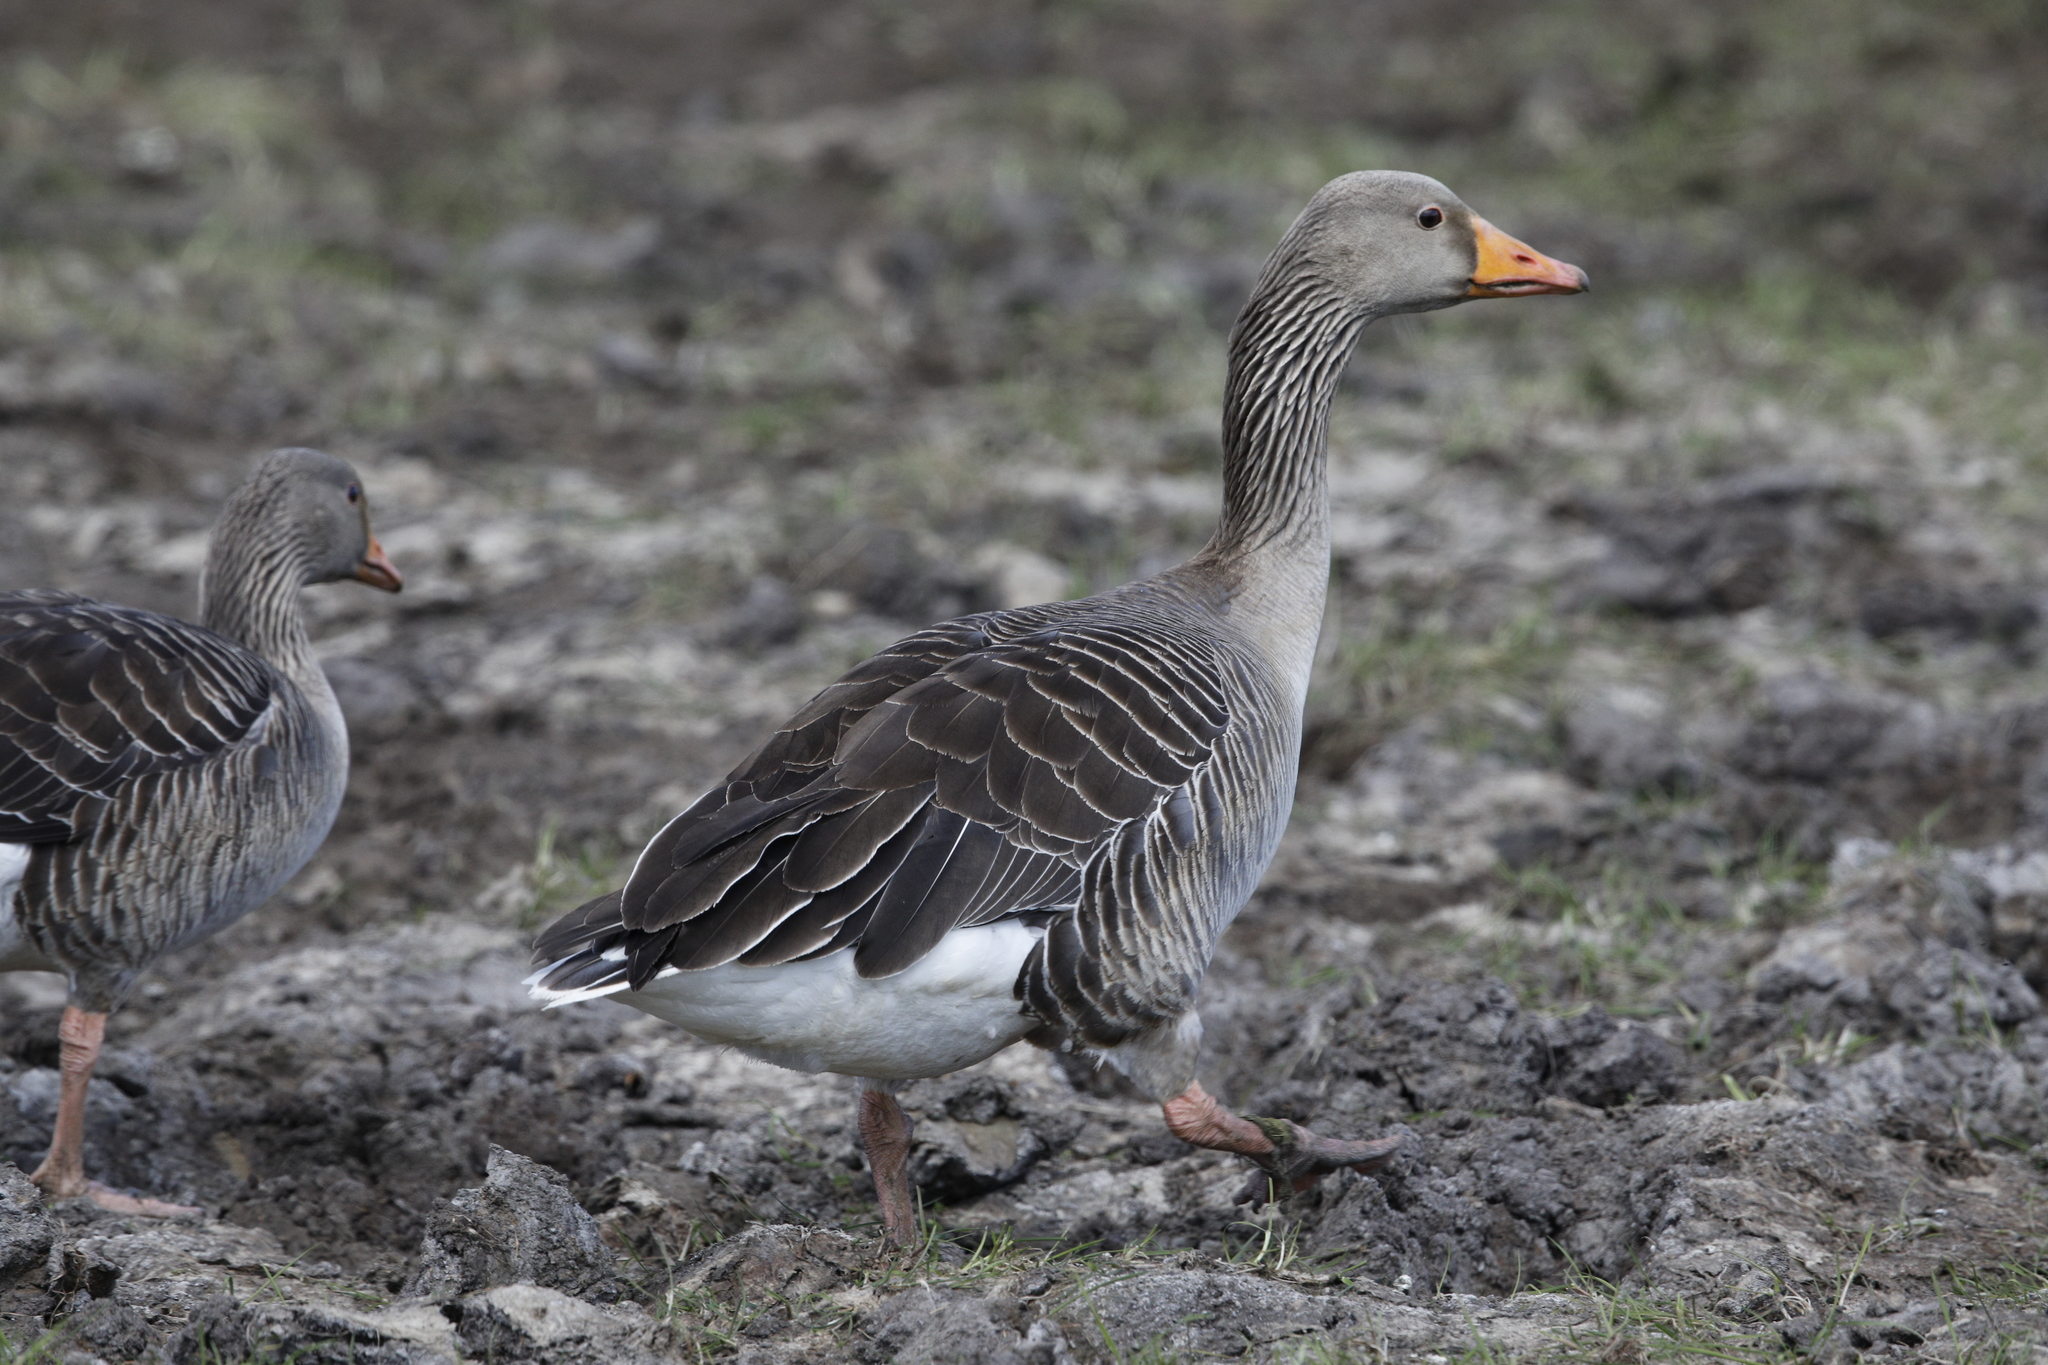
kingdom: Animalia
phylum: Chordata
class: Aves
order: Anseriformes
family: Anatidae
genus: Anser
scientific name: Anser anser
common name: Greylag goose
